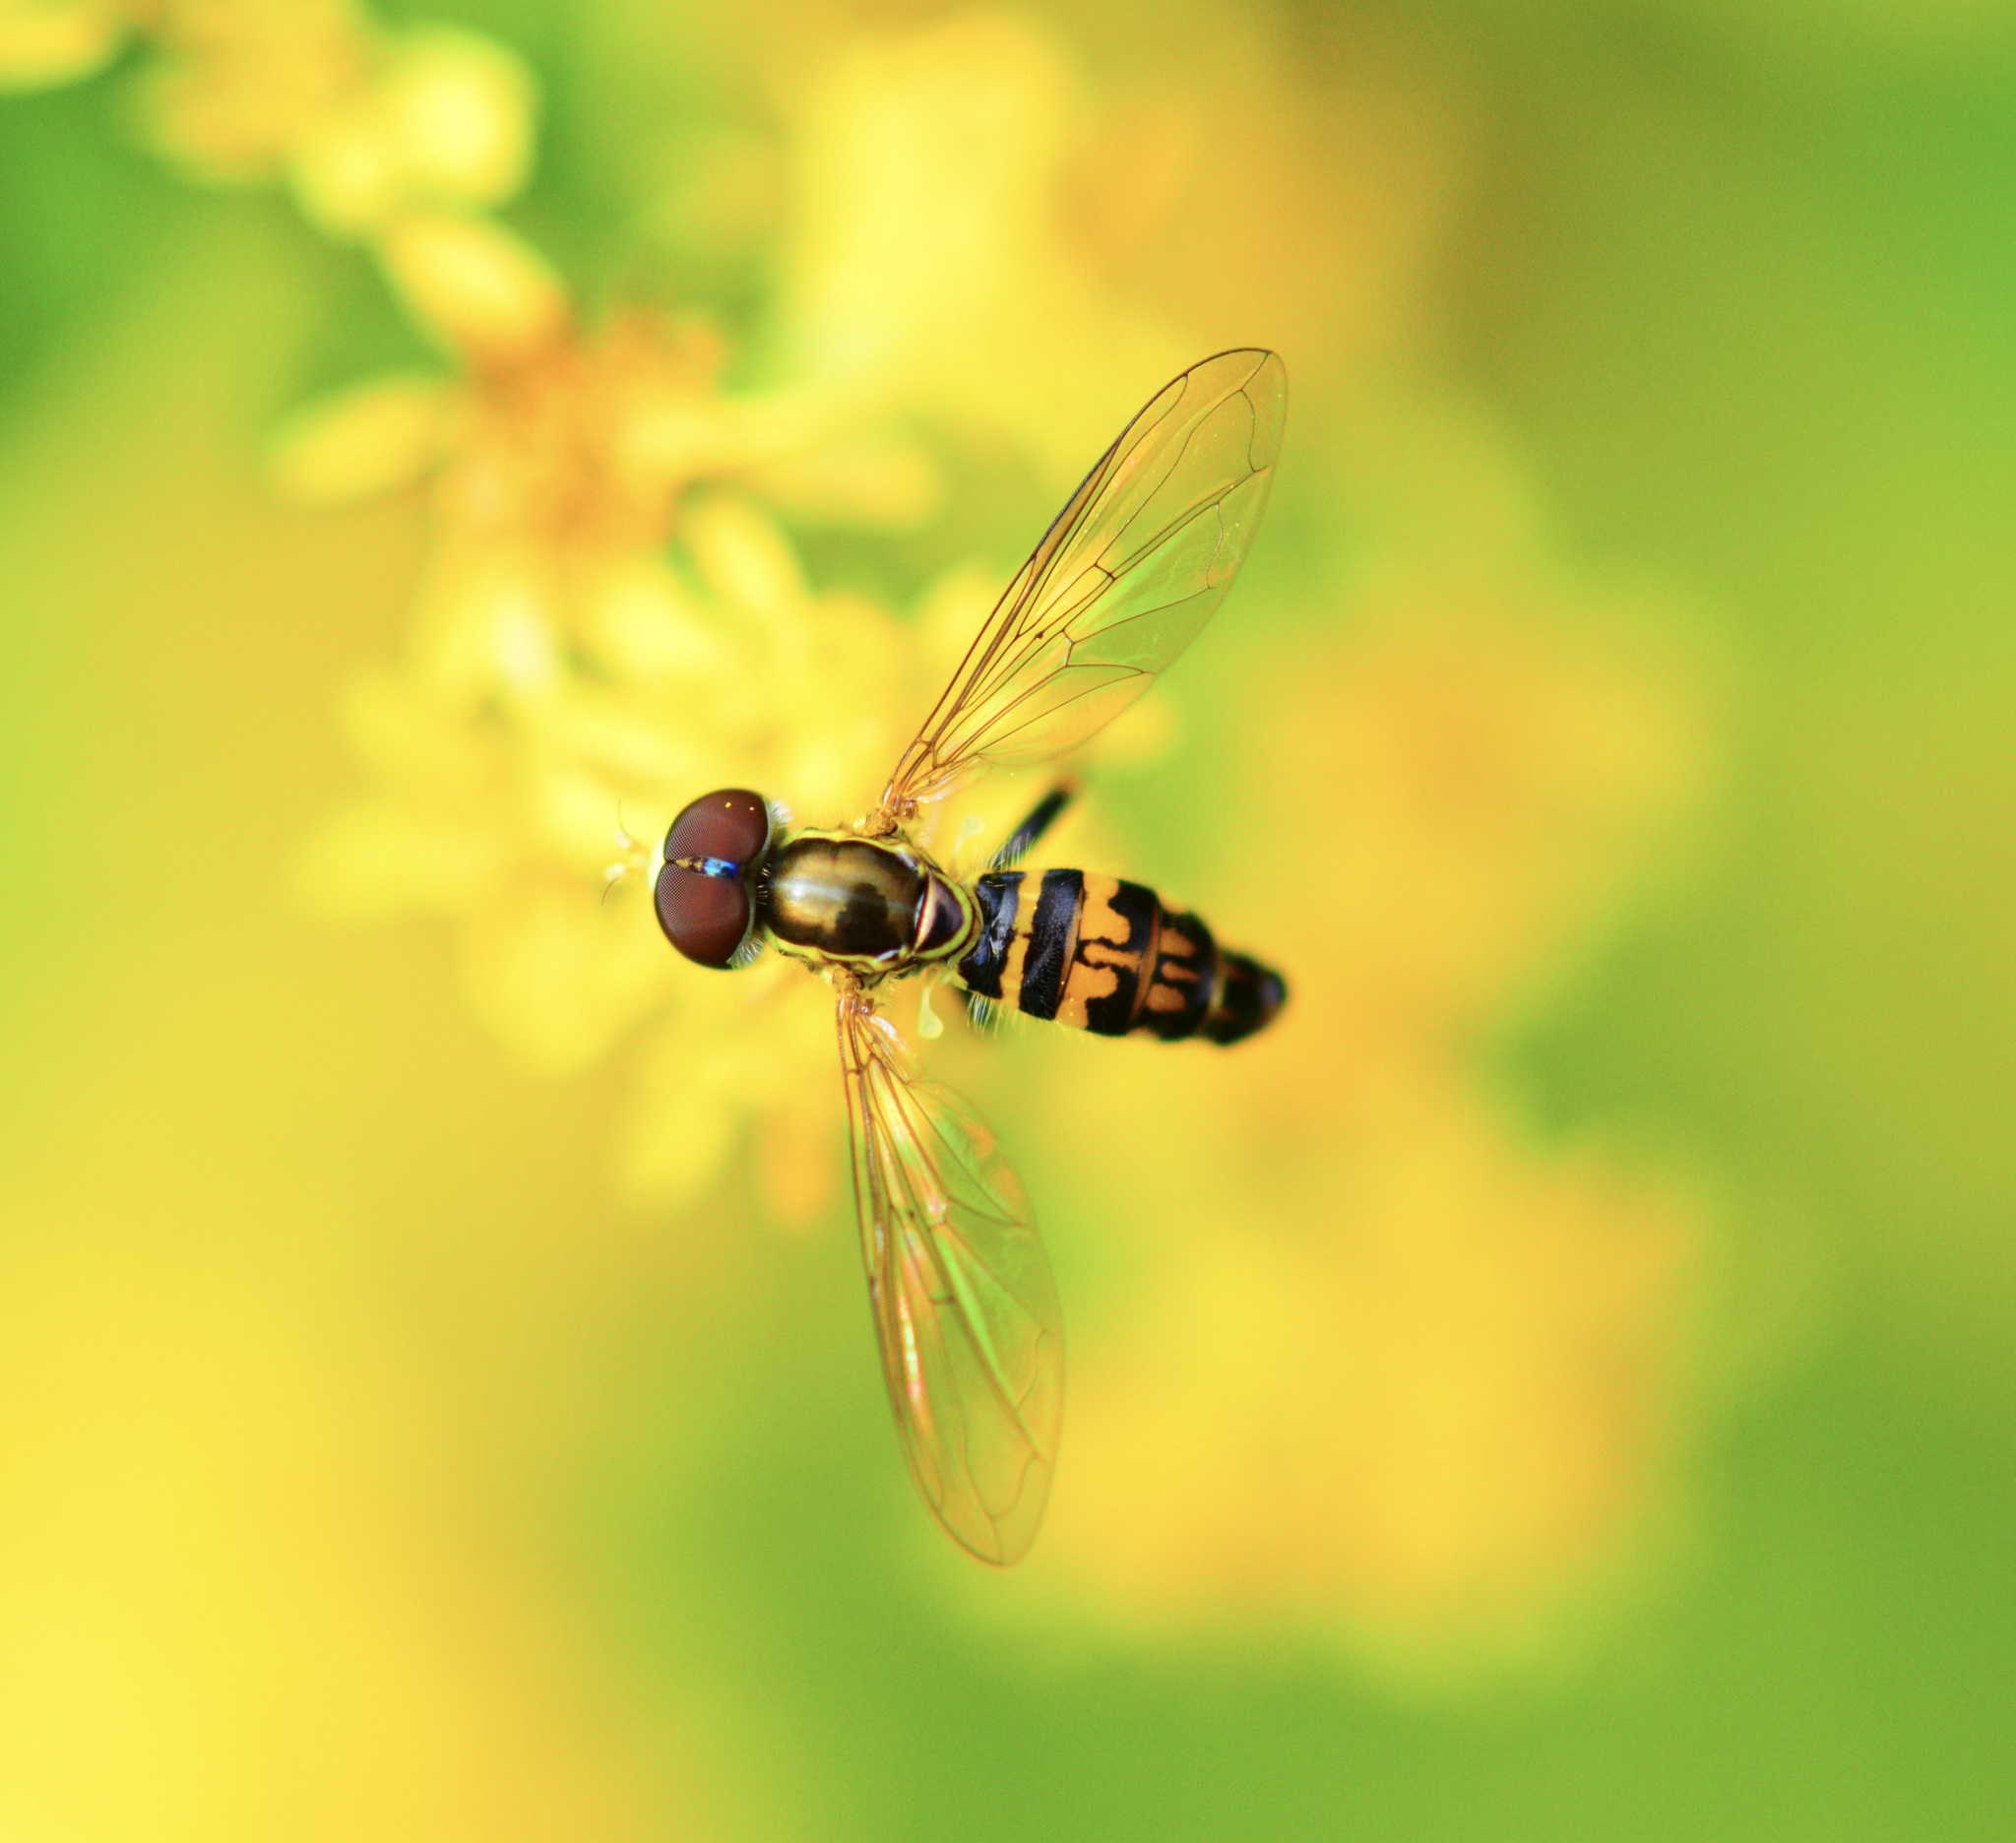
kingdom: Animalia
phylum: Arthropoda
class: Insecta
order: Diptera
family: Syrphidae
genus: Toxomerus
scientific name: Toxomerus geminatus
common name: Eastern calligrapher
